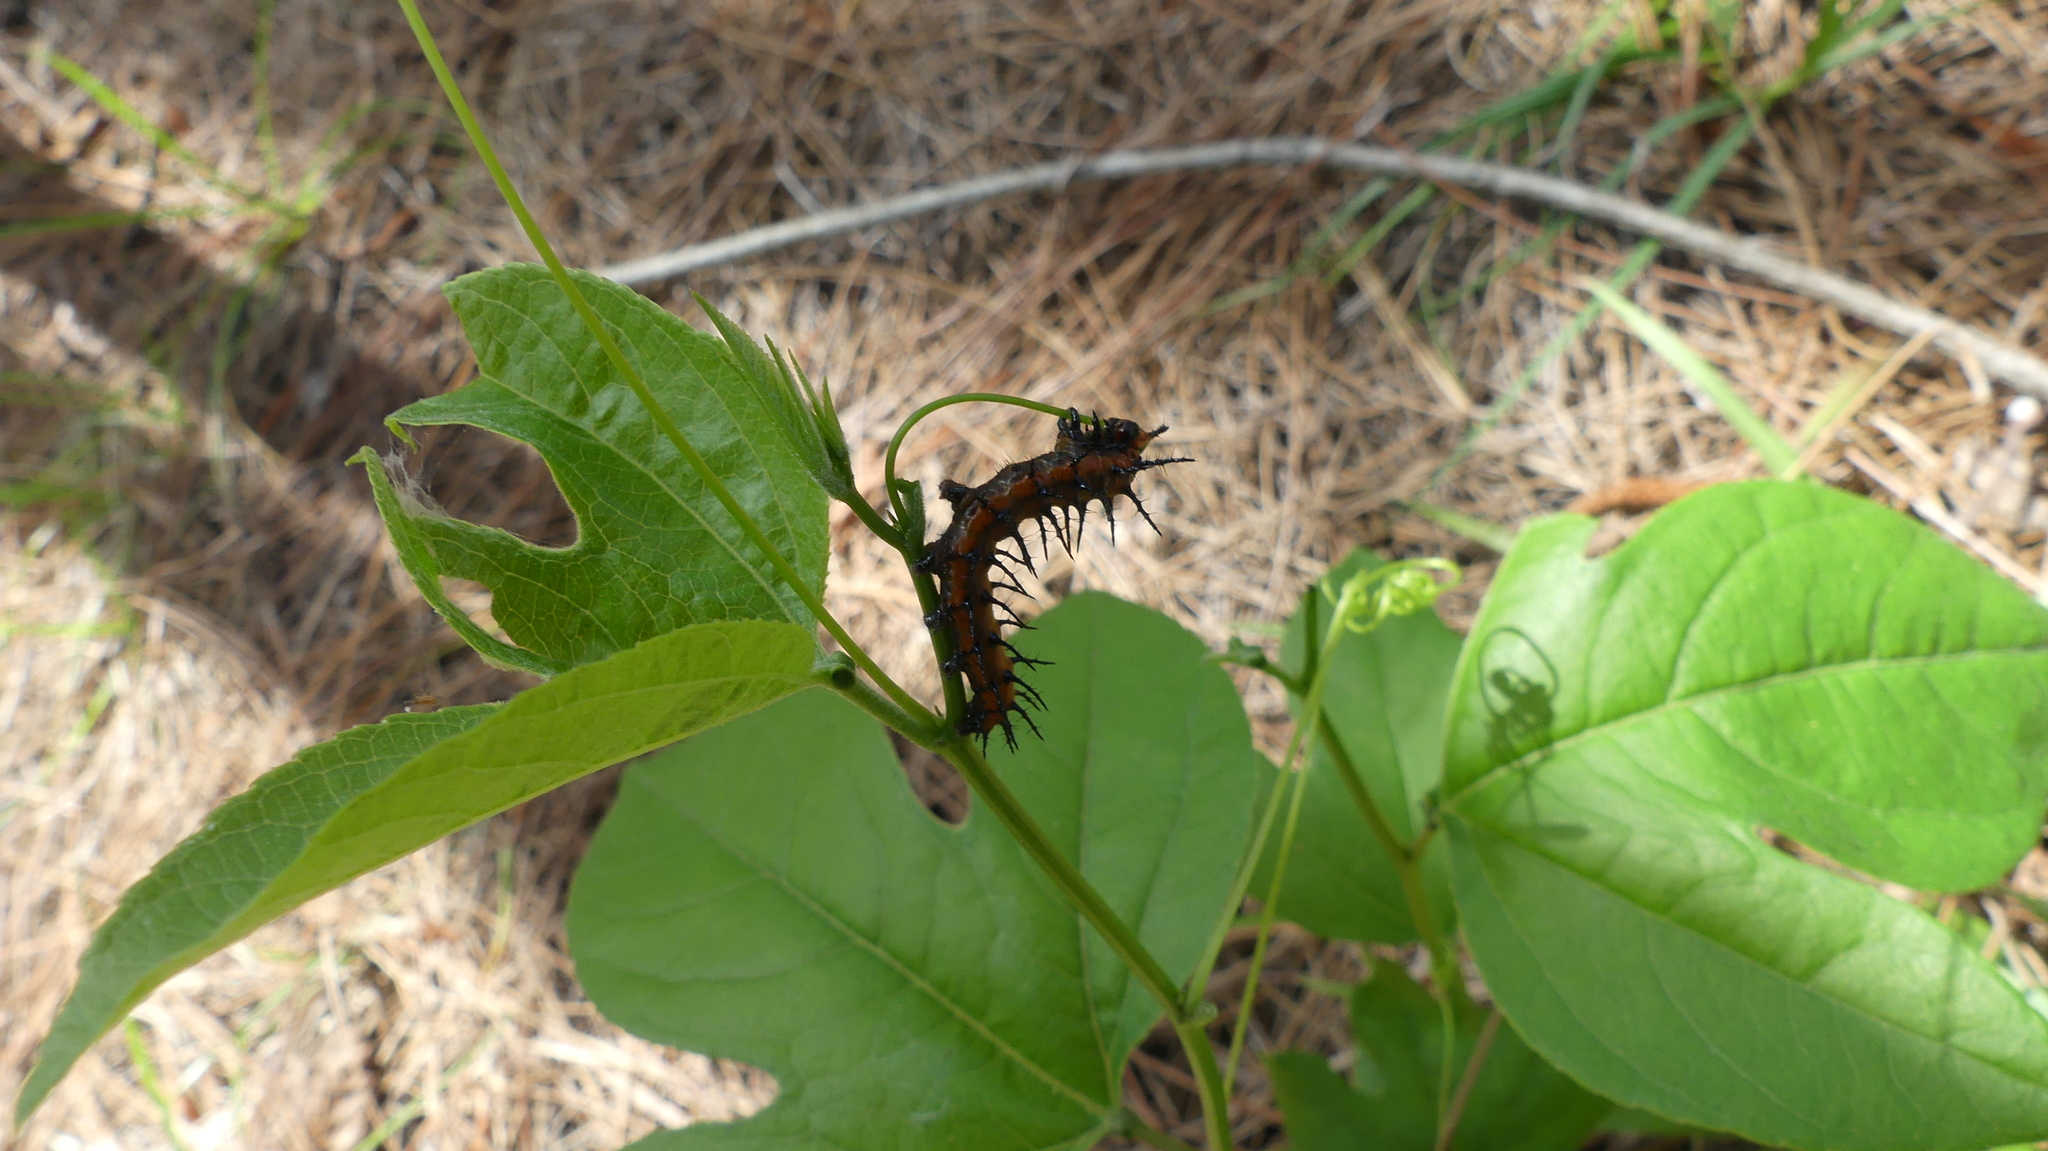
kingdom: Animalia
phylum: Arthropoda
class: Insecta
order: Lepidoptera
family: Nymphalidae
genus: Dione
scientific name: Dione vanillae
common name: Gulf fritillary
